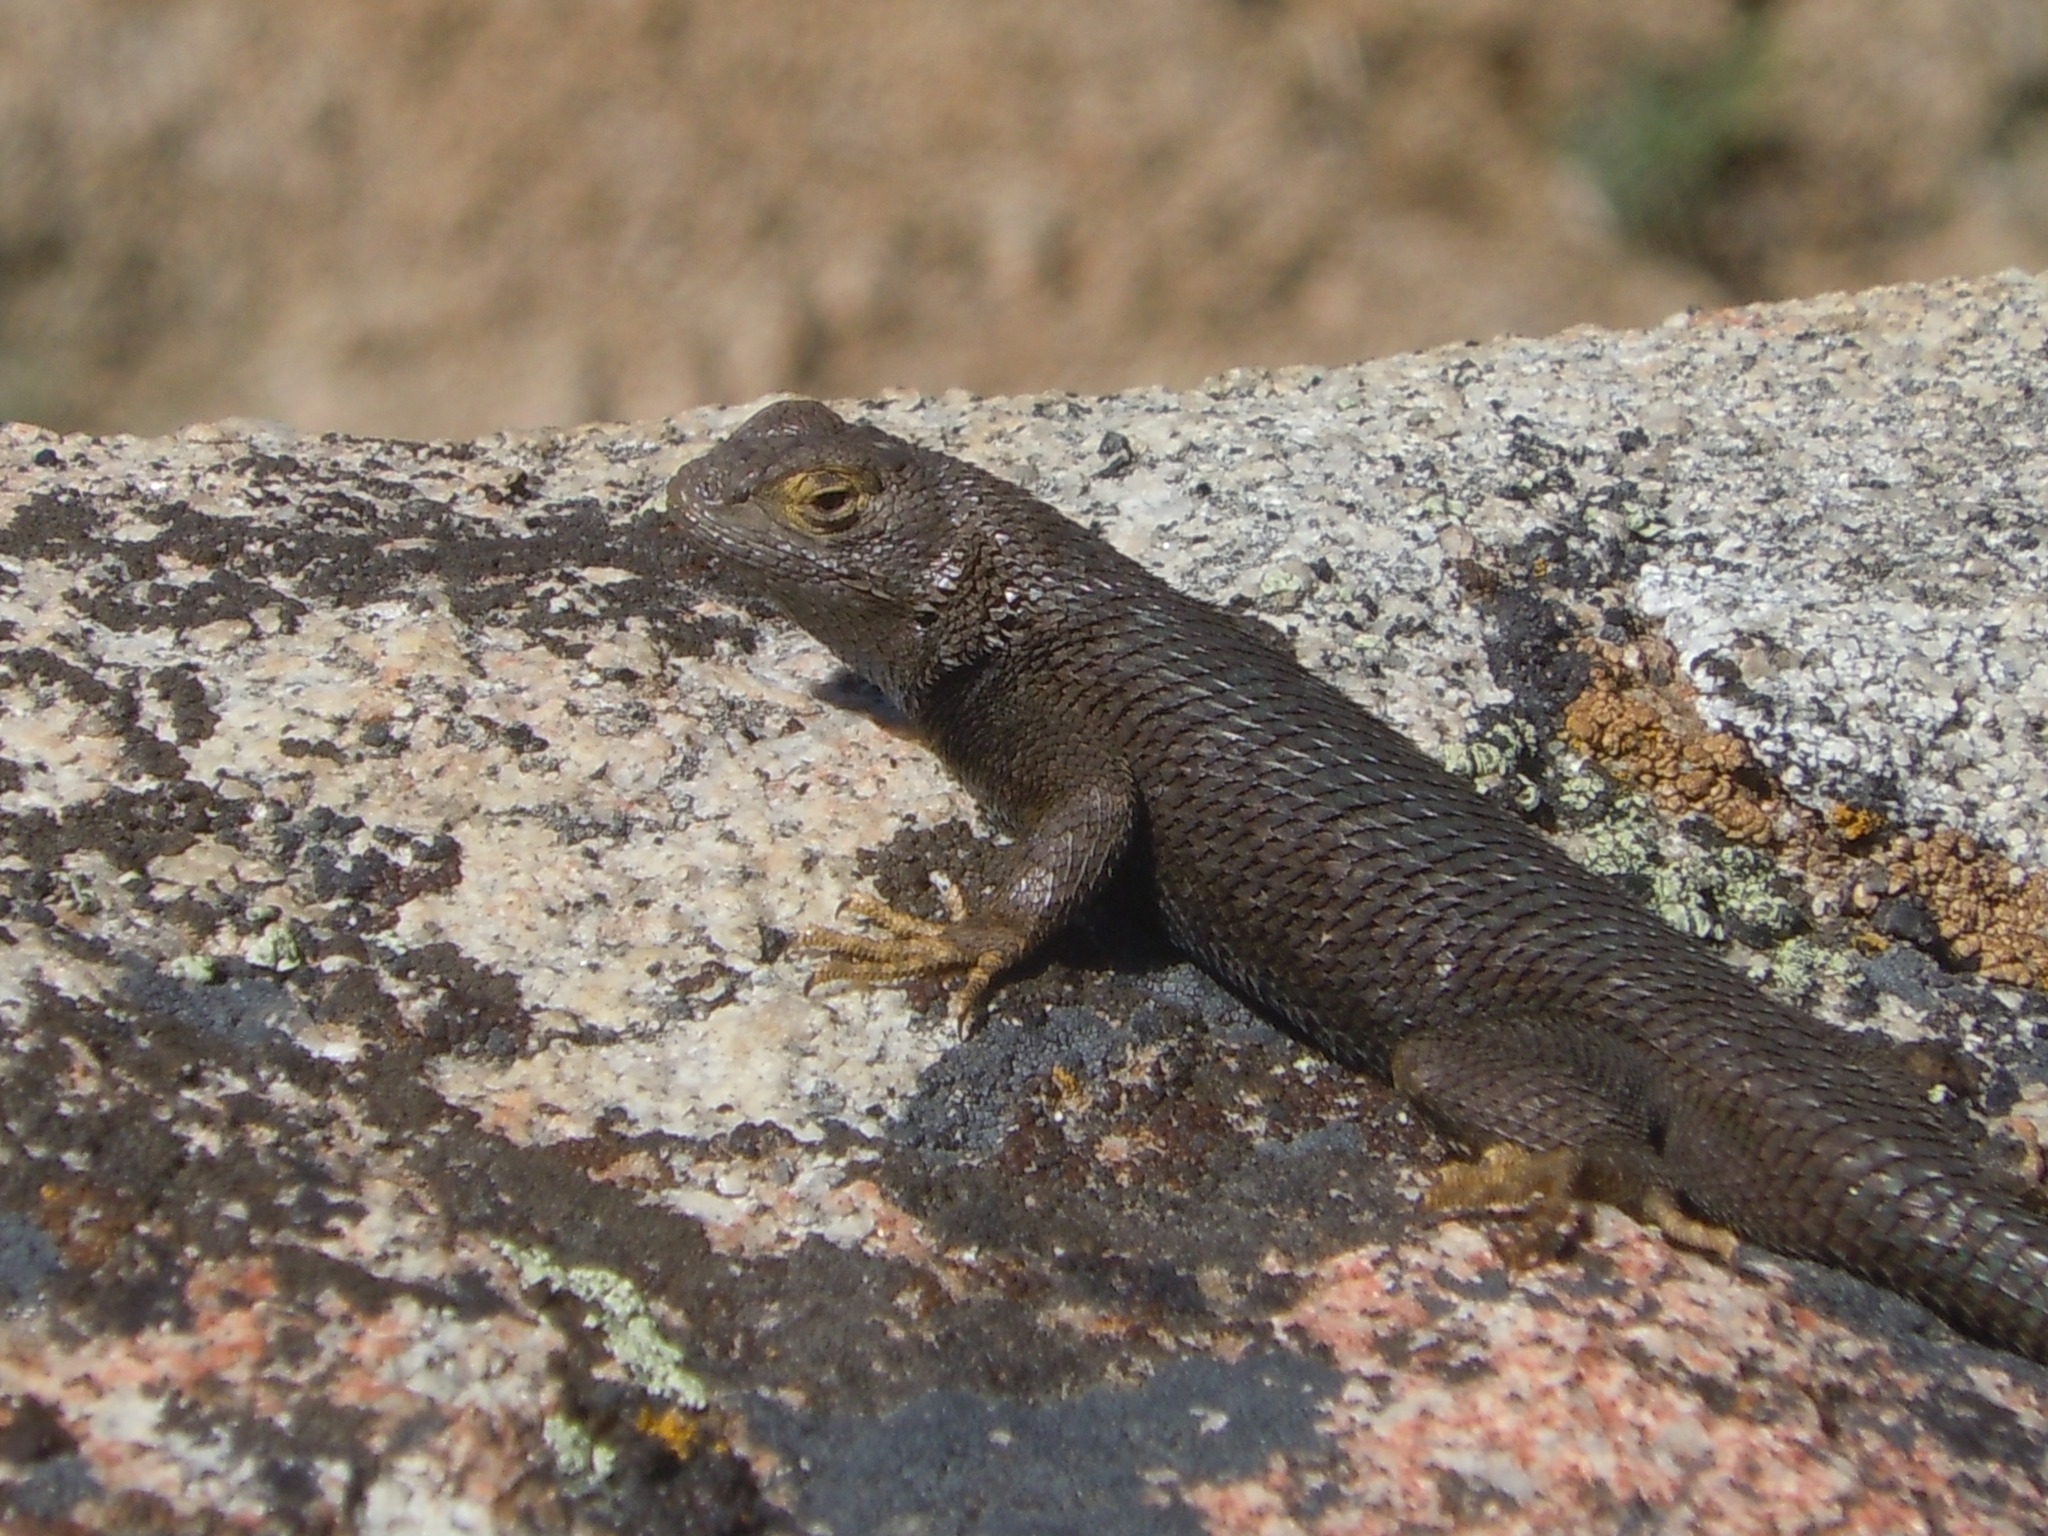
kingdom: Animalia
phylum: Chordata
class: Squamata
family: Phrynosomatidae
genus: Sceloporus
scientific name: Sceloporus occidentalis
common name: Western fence lizard
